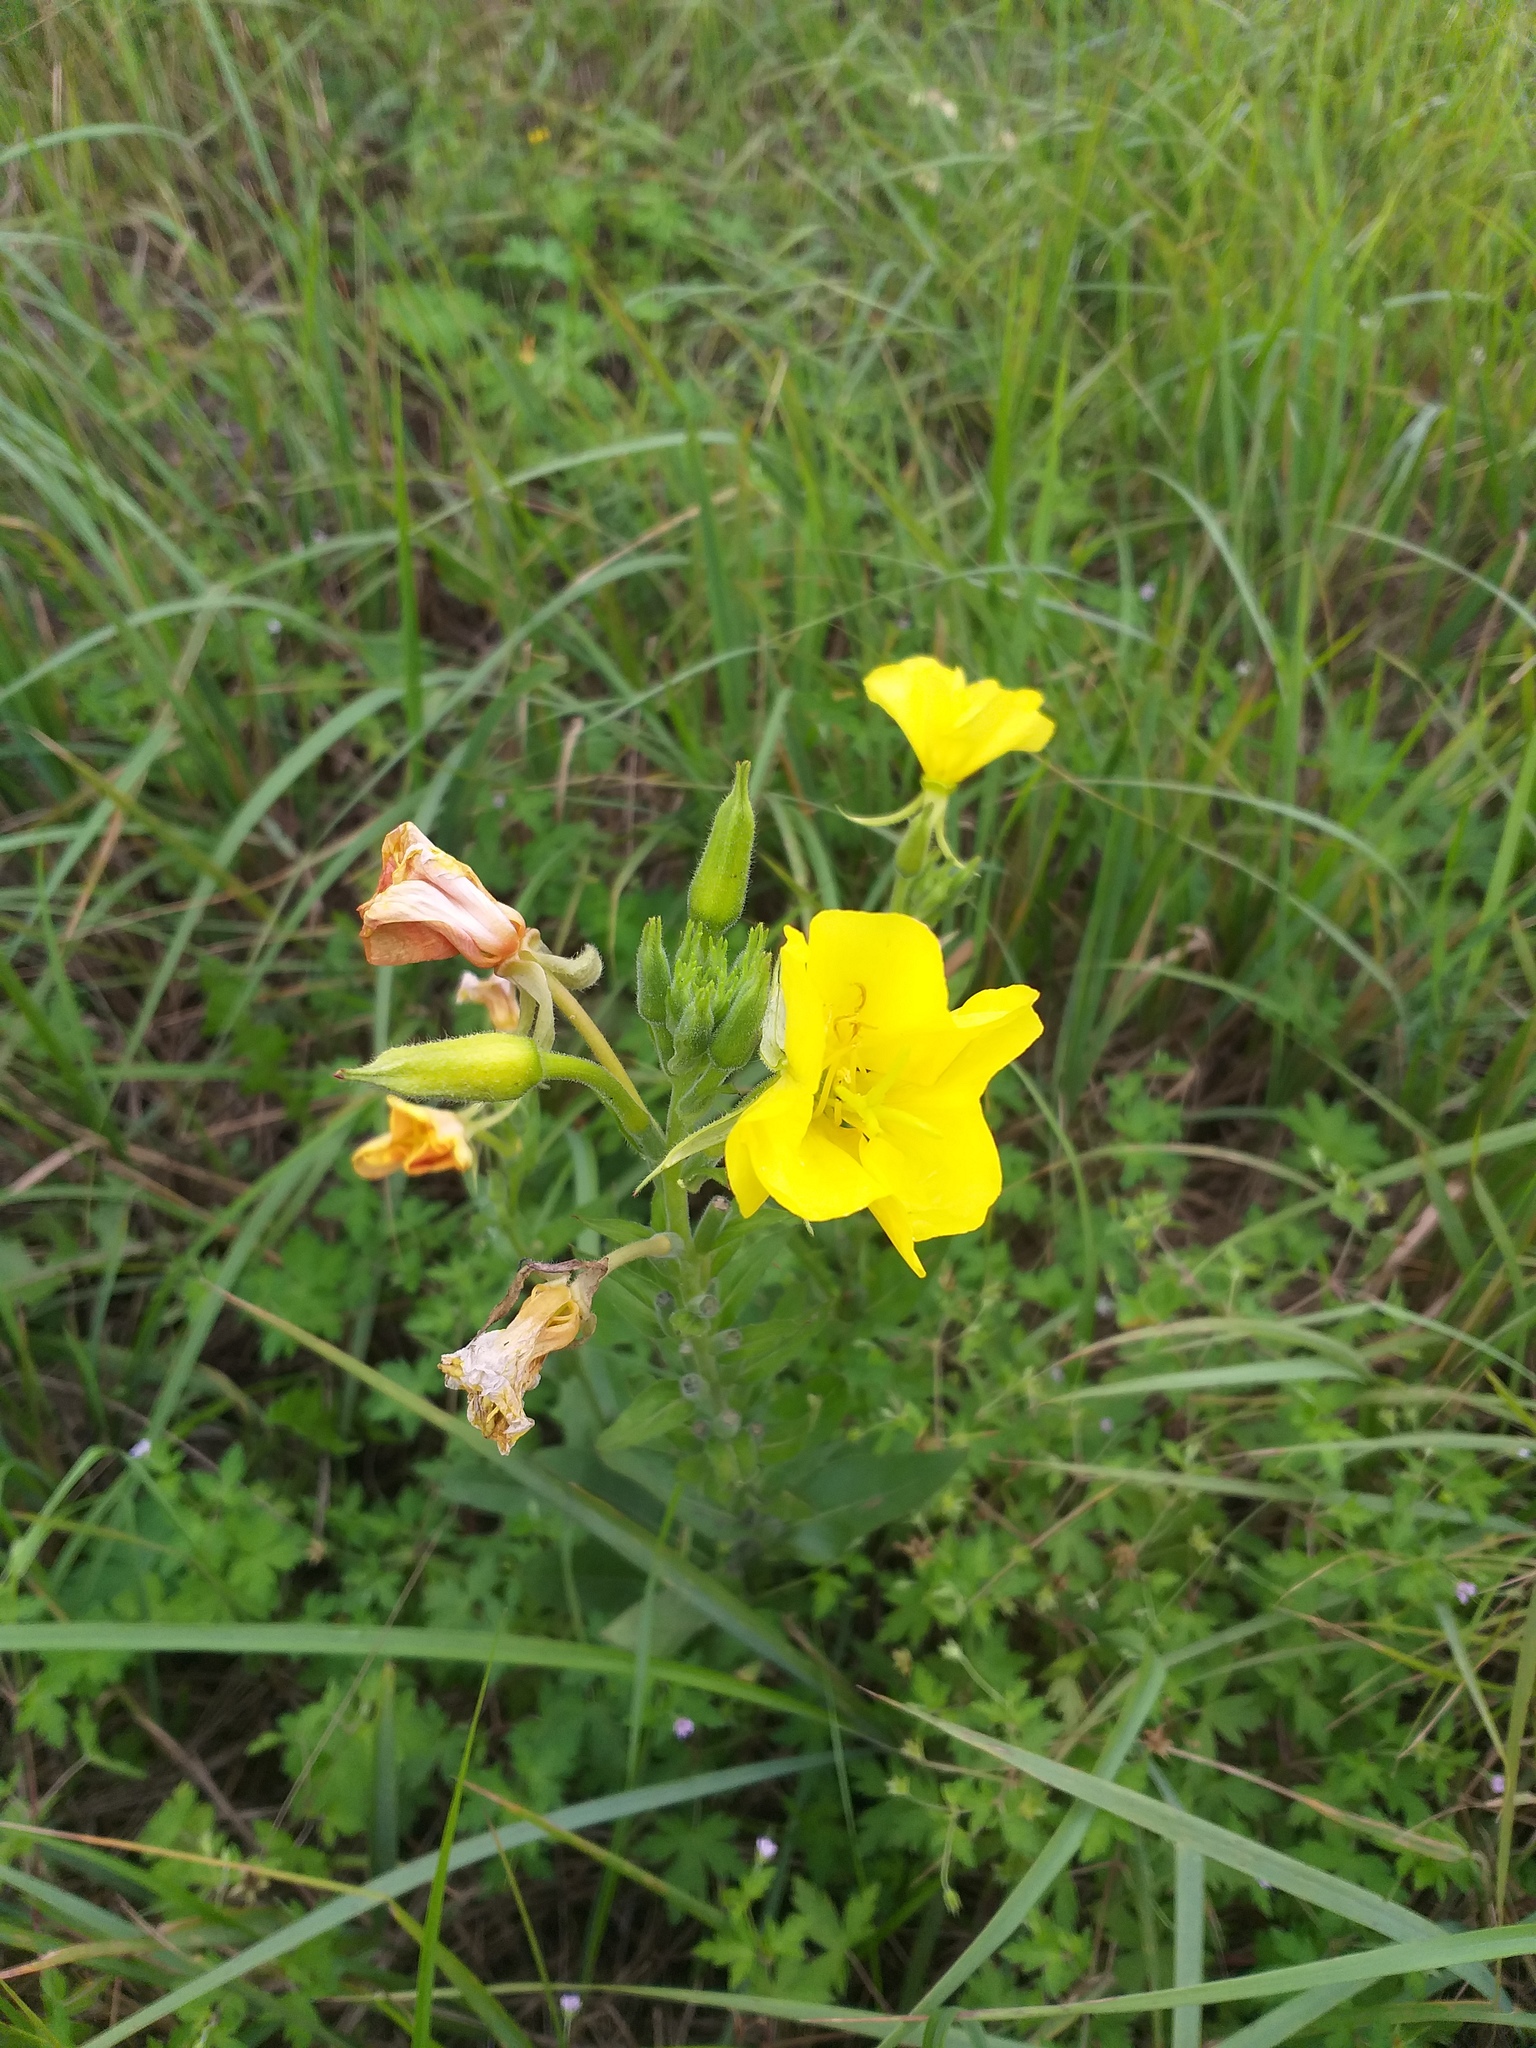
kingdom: Plantae
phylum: Tracheophyta
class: Magnoliopsida
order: Myrtales
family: Onagraceae
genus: Oenothera
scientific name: Oenothera biennis
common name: Common evening-primrose
